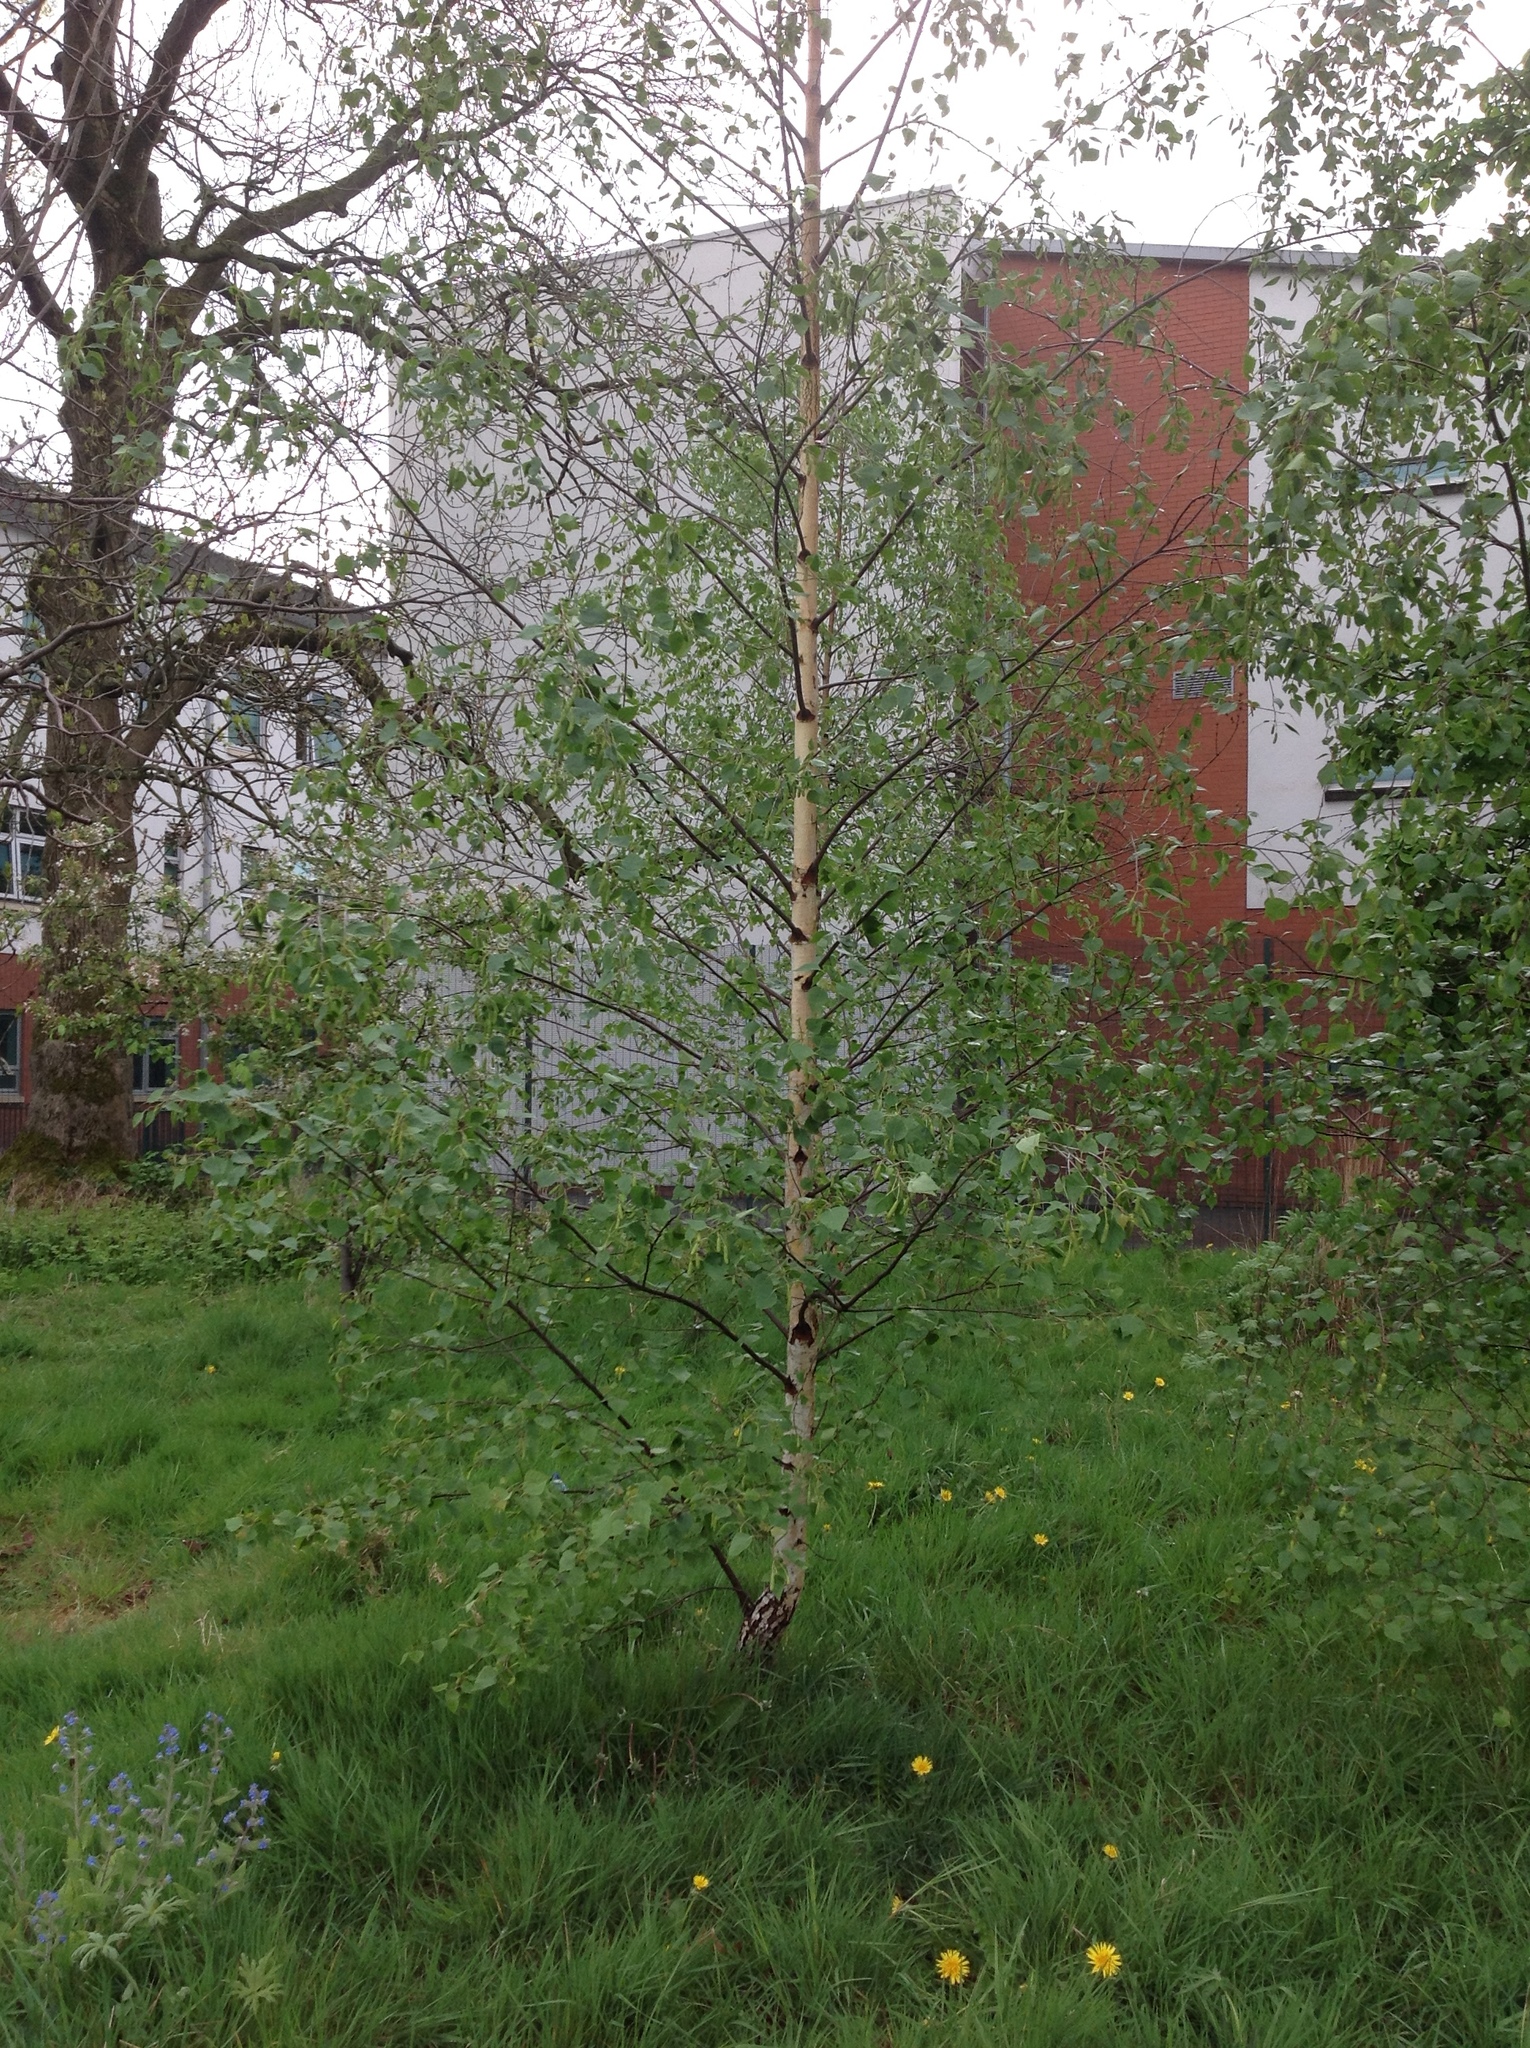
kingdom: Plantae
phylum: Tracheophyta
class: Magnoliopsida
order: Fagales
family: Betulaceae
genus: Betula
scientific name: Betula pendula
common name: Silver birch
